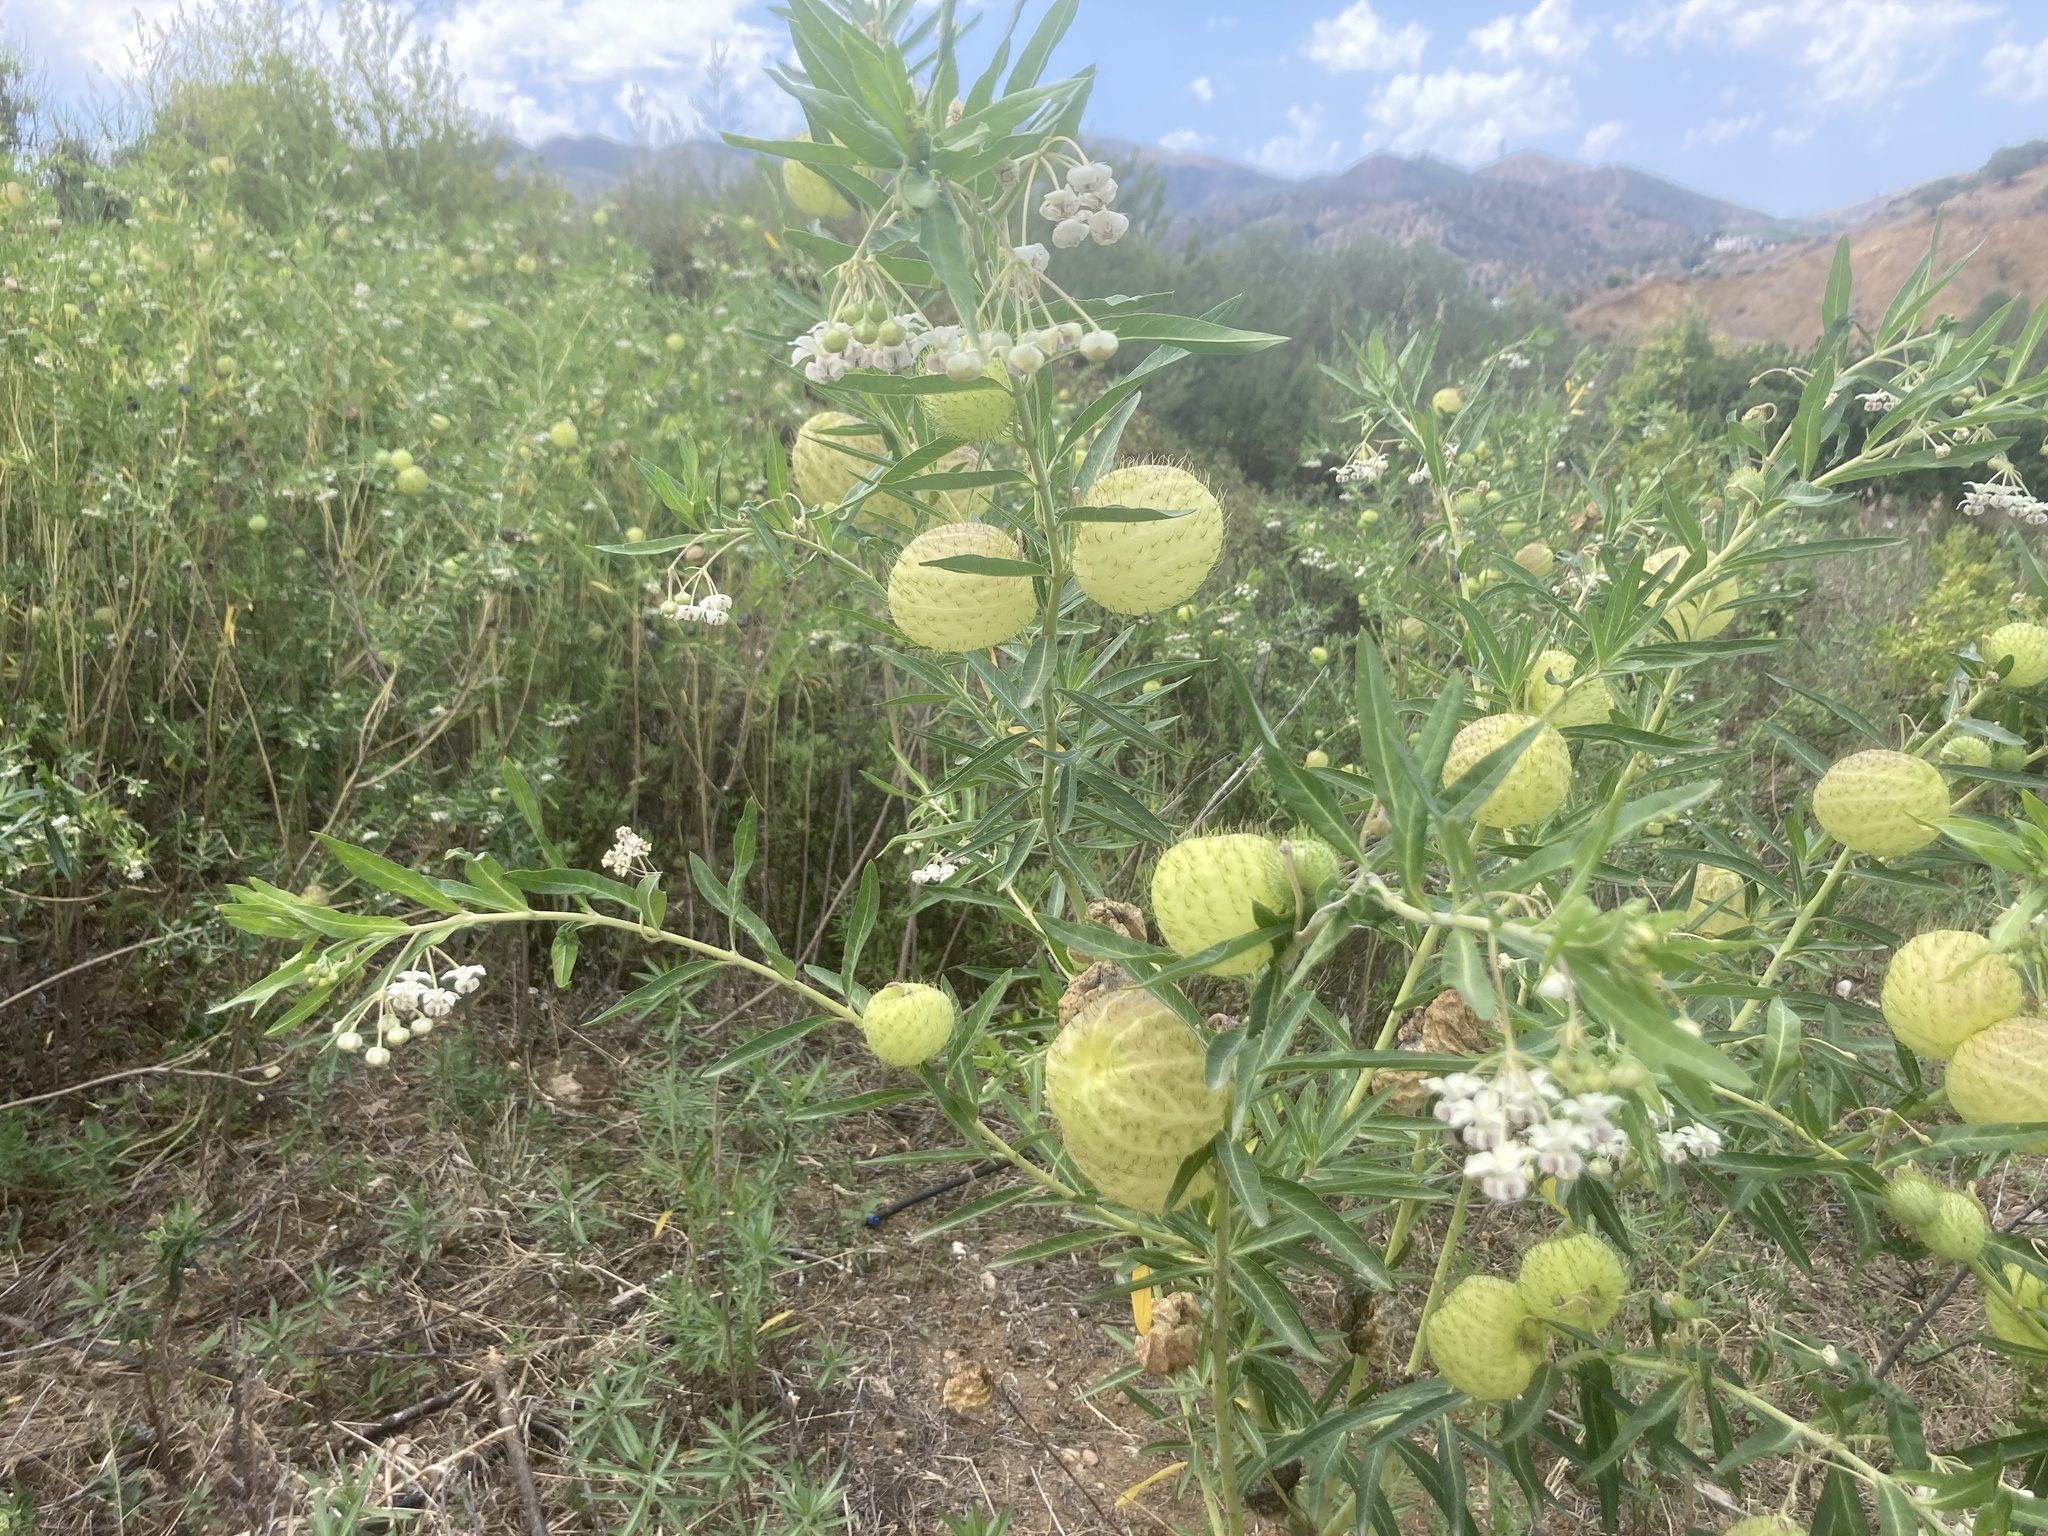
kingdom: Plantae
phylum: Tracheophyta
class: Magnoliopsida
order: Gentianales
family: Apocynaceae
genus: Gomphocarpus
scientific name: Gomphocarpus fruticosus
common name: Milkweed
